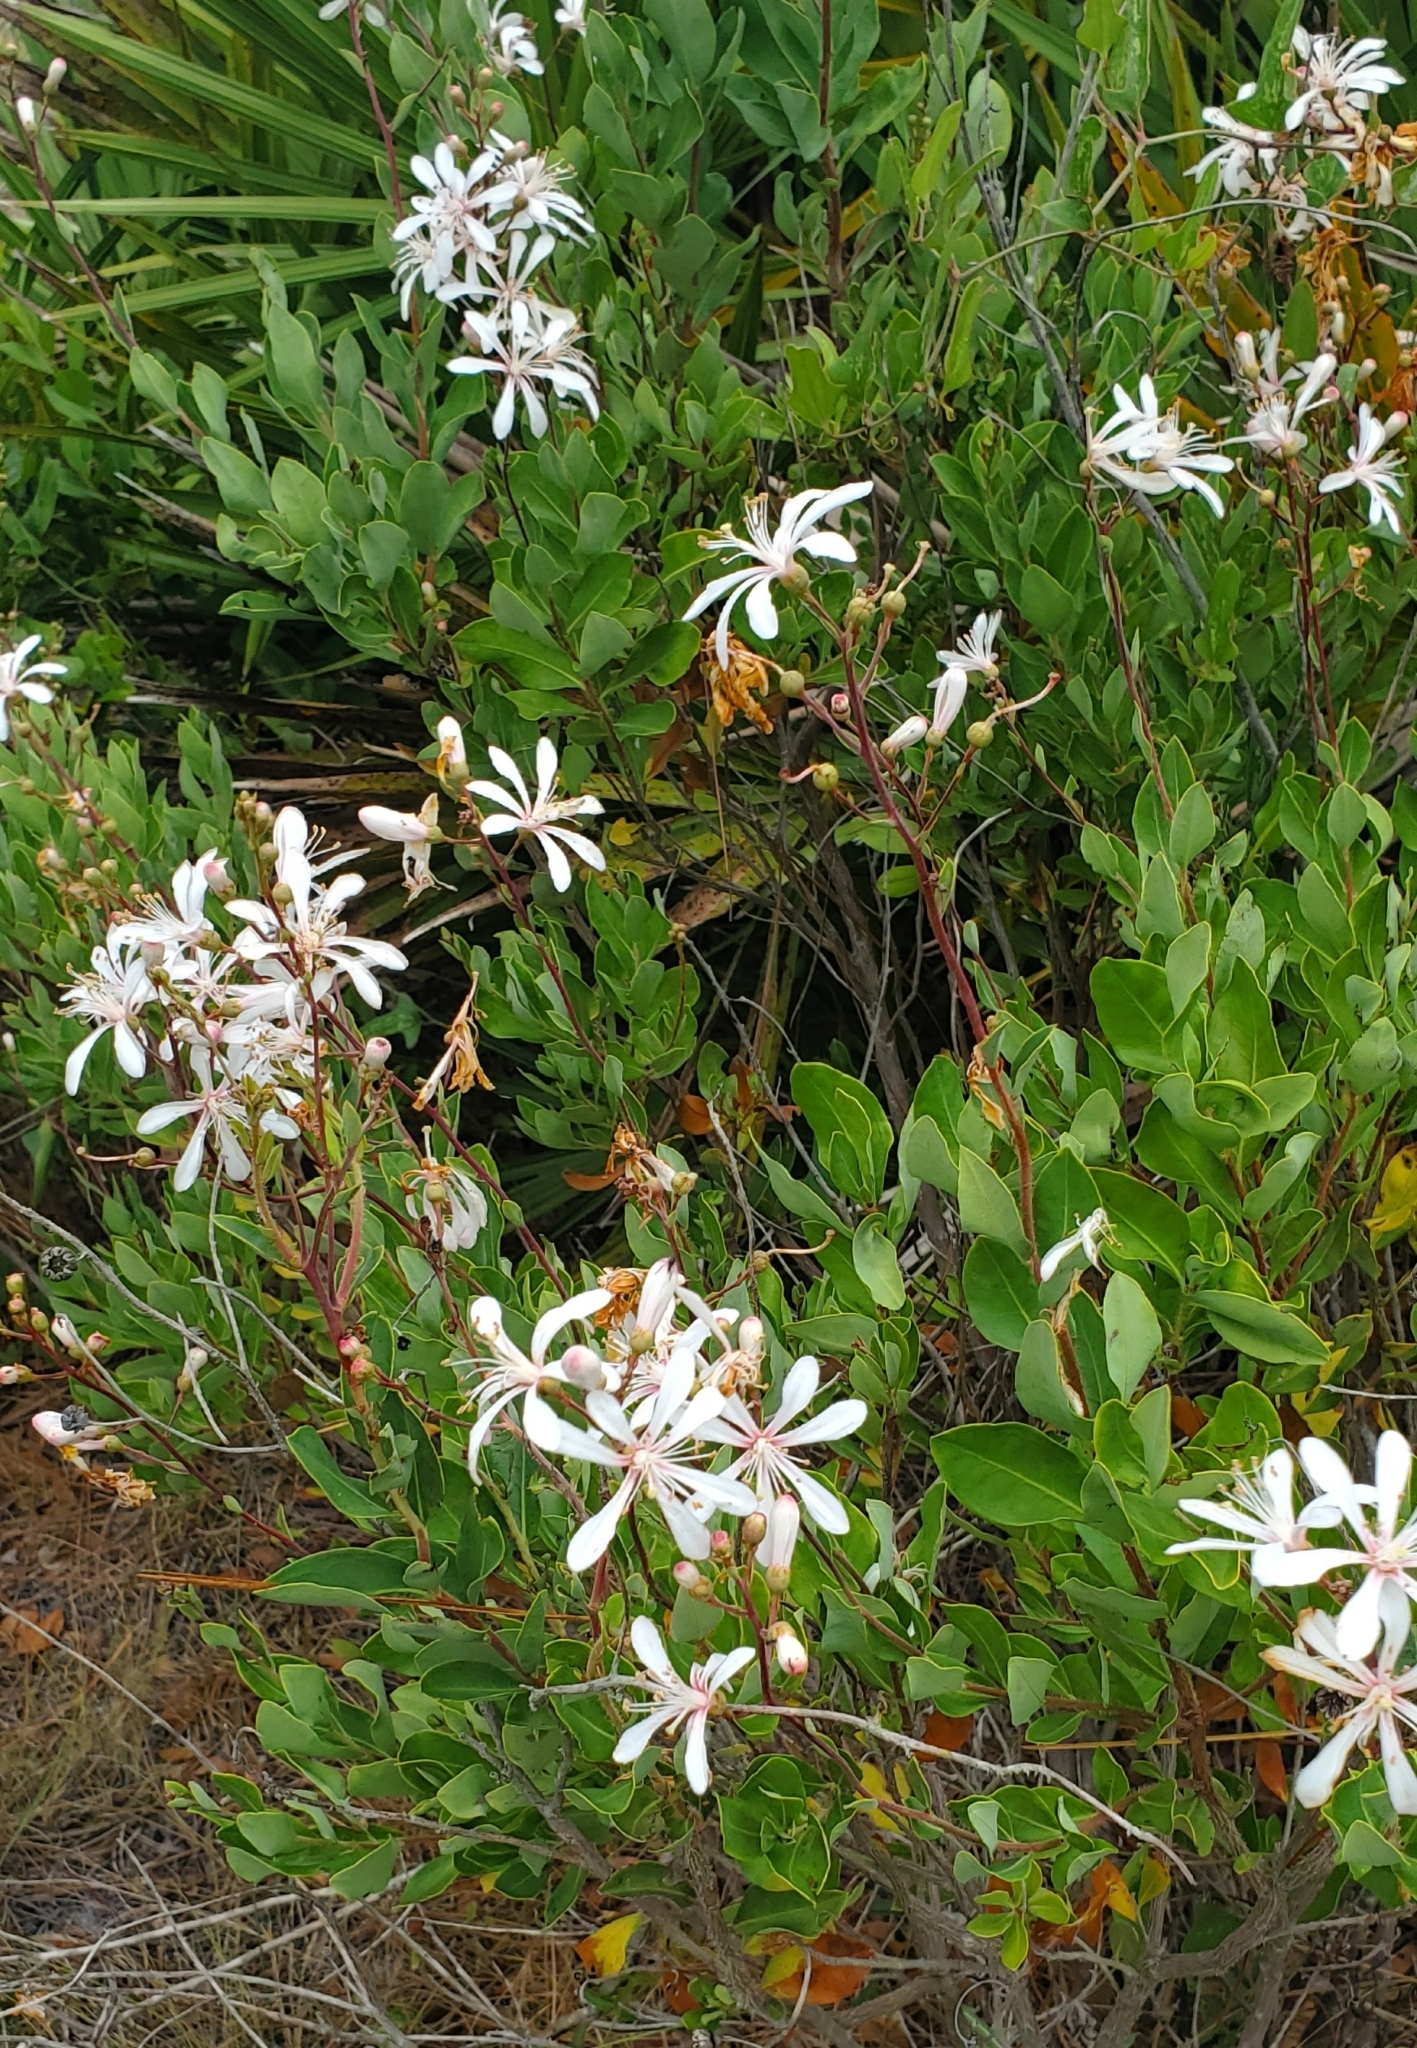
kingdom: Plantae
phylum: Tracheophyta
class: Magnoliopsida
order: Ericales
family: Ericaceae
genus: Bejaria
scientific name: Bejaria racemosa
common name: Tarflower
